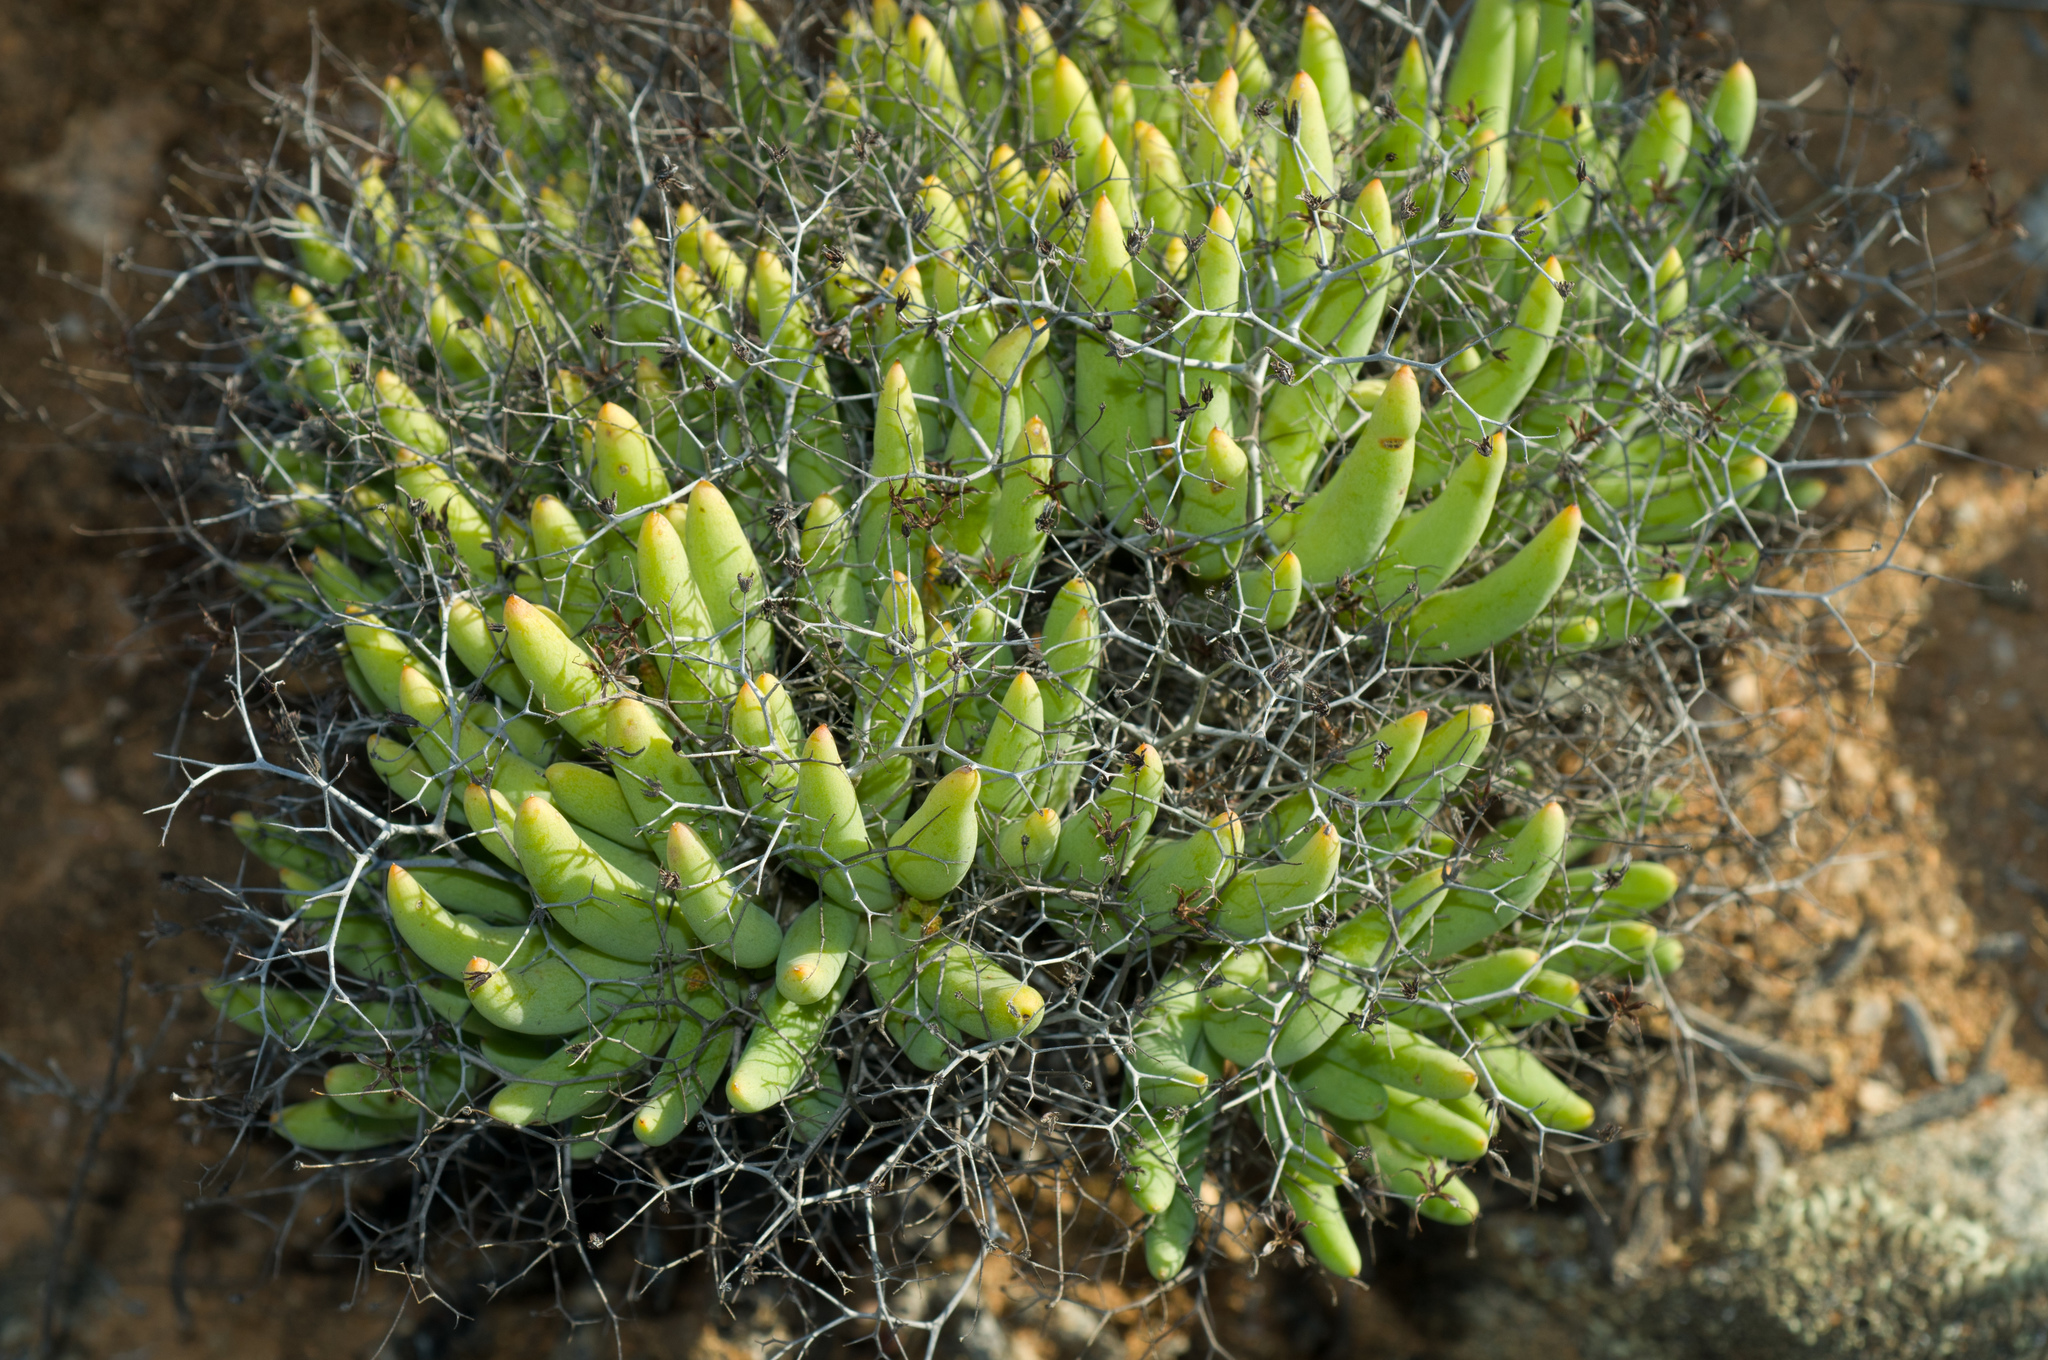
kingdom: Plantae
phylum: Tracheophyta
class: Magnoliopsida
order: Saxifragales
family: Crassulaceae
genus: Tylecodon
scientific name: Tylecodon reticulatus
